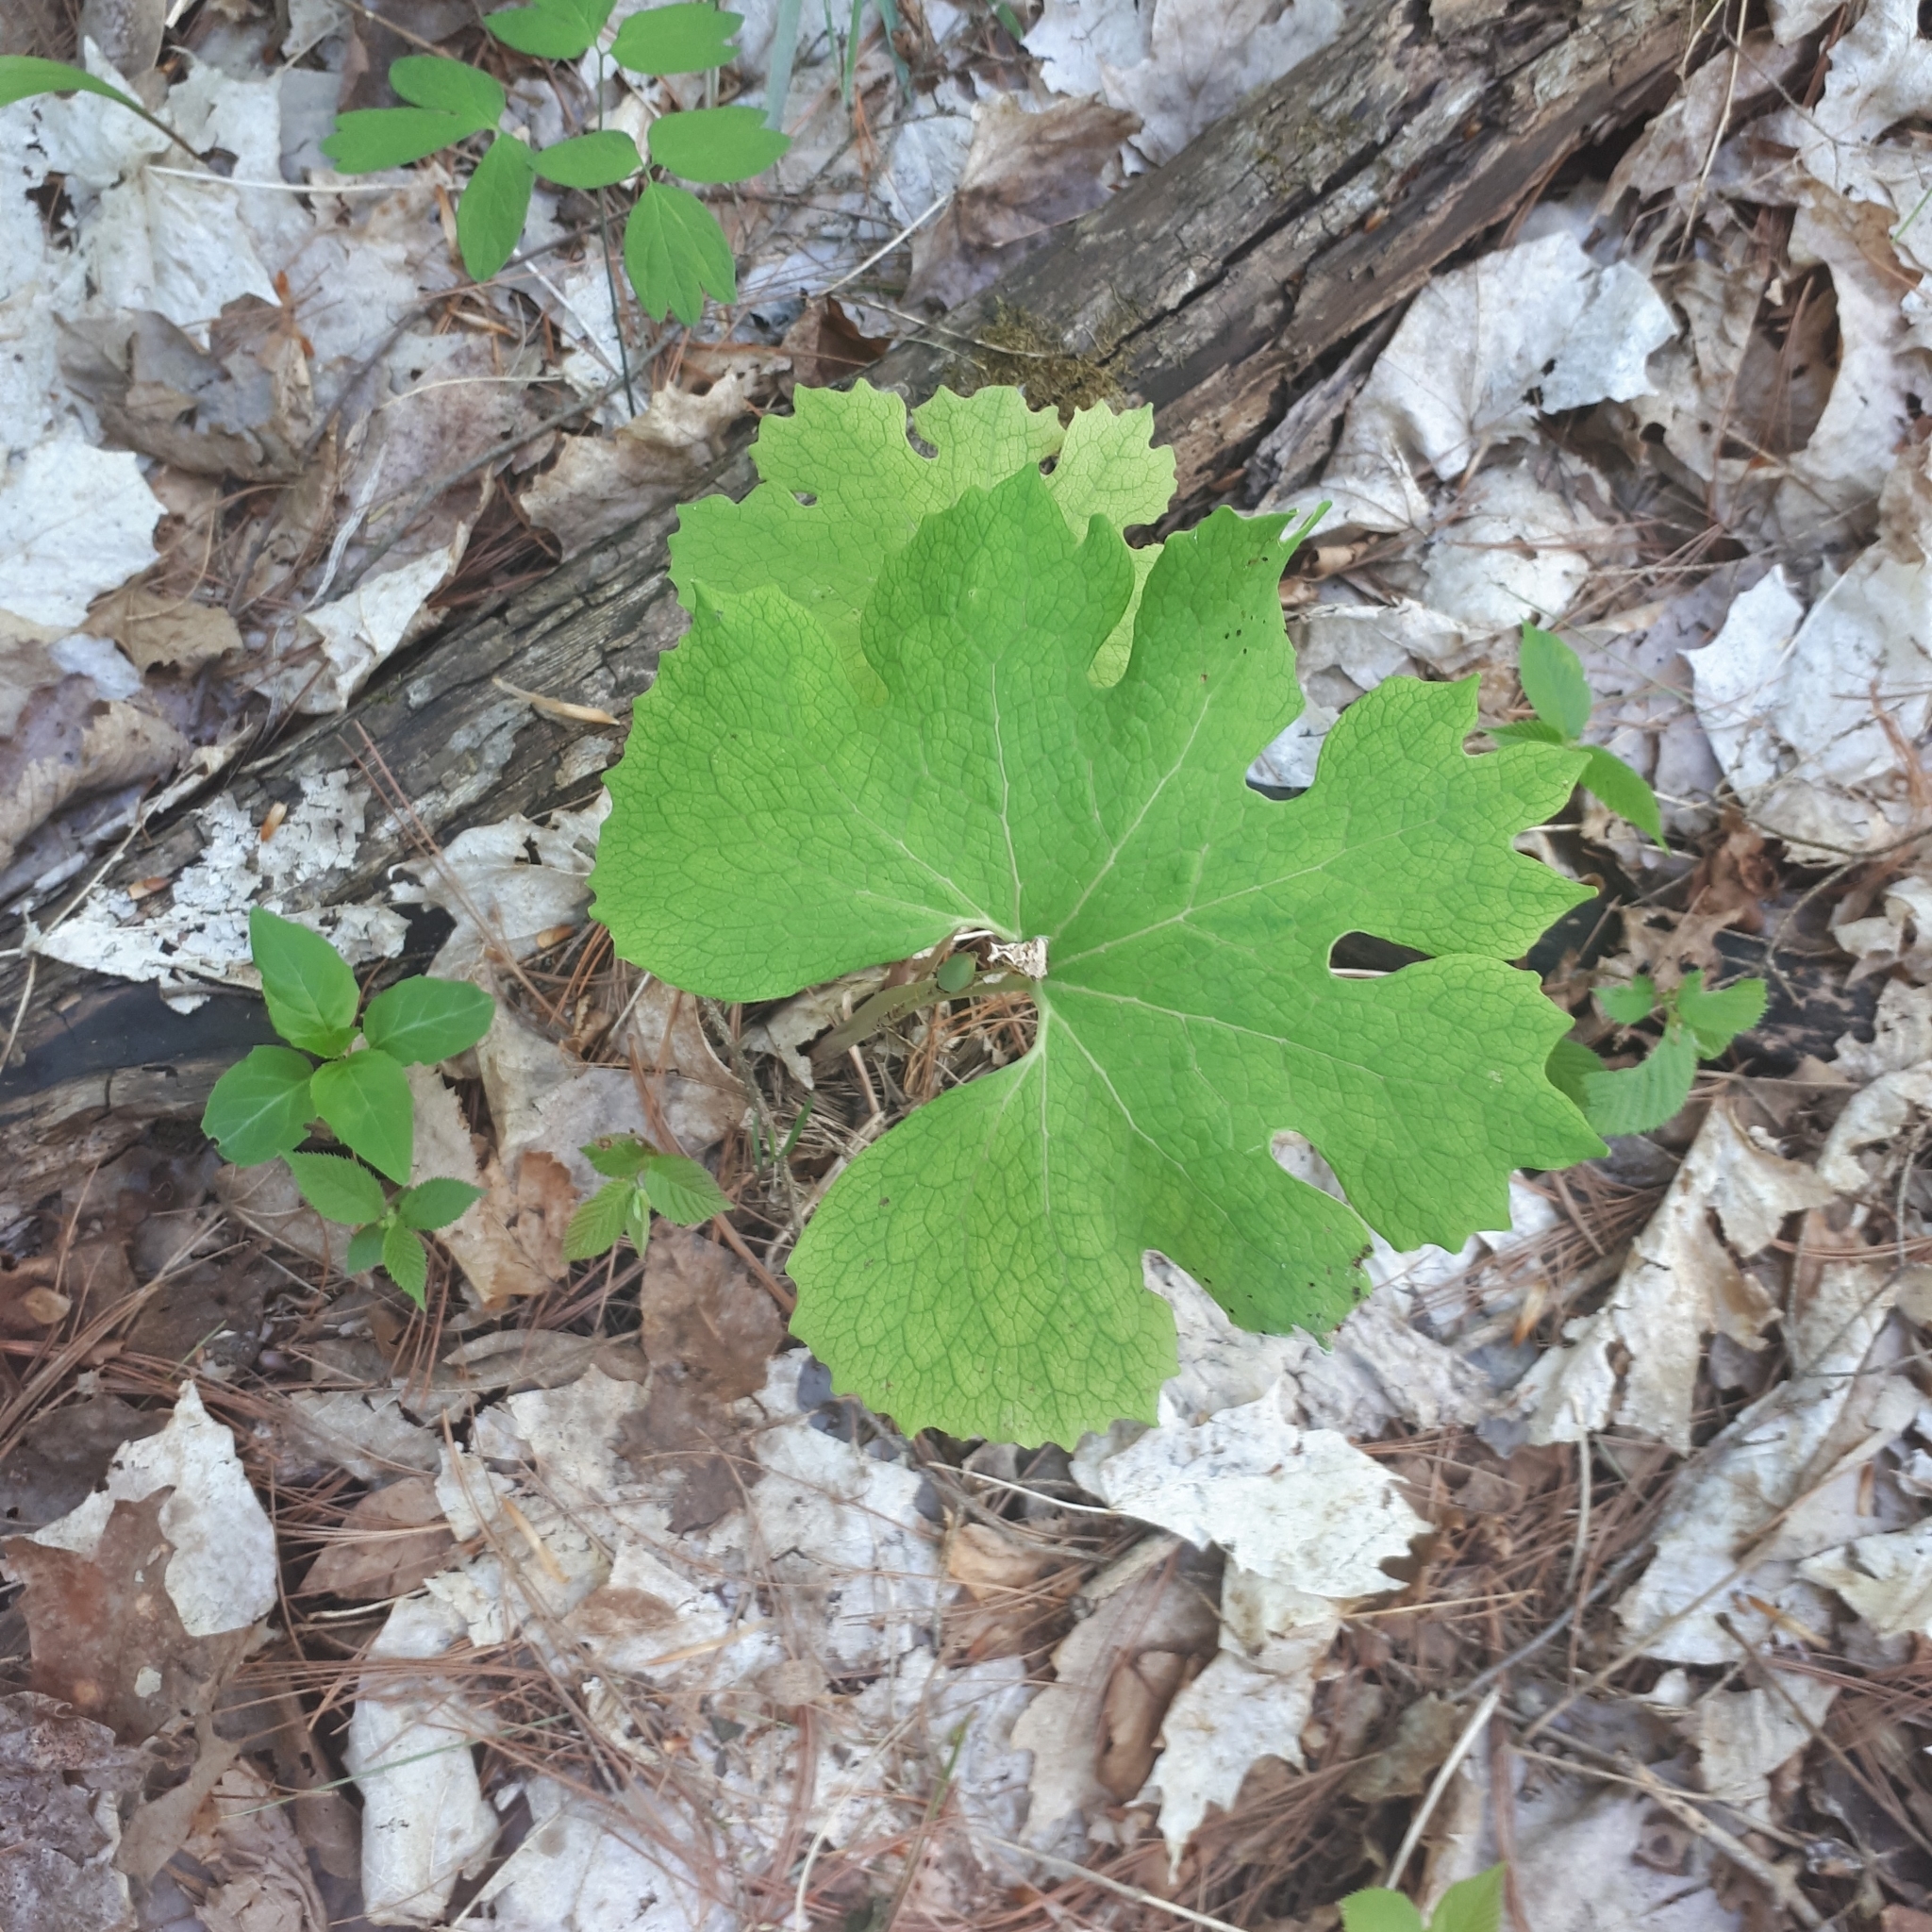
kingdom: Plantae
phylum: Tracheophyta
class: Magnoliopsida
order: Ranunculales
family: Papaveraceae
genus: Sanguinaria
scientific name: Sanguinaria canadensis
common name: Bloodroot
